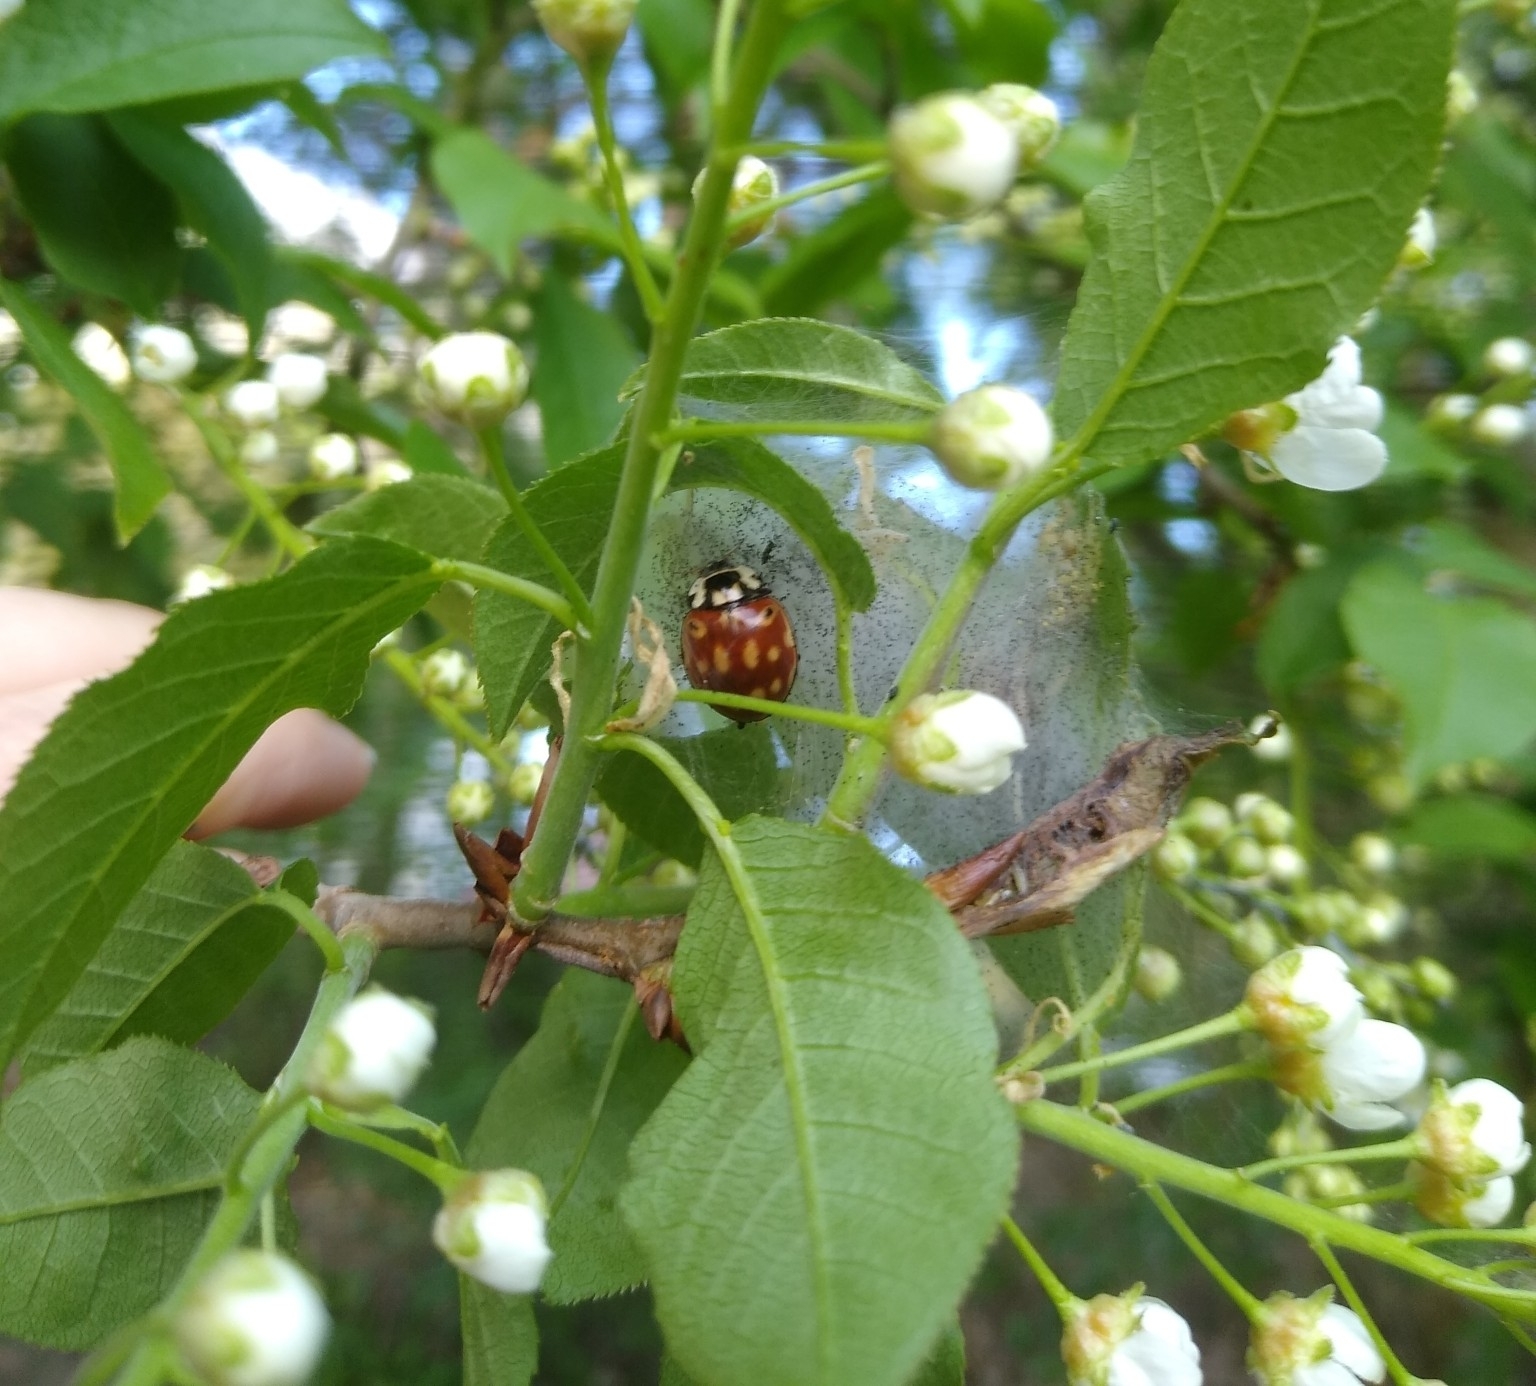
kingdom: Animalia
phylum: Arthropoda
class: Insecta
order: Coleoptera
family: Coccinellidae
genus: Anatis
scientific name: Anatis ocellata
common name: Eyed ladybird
